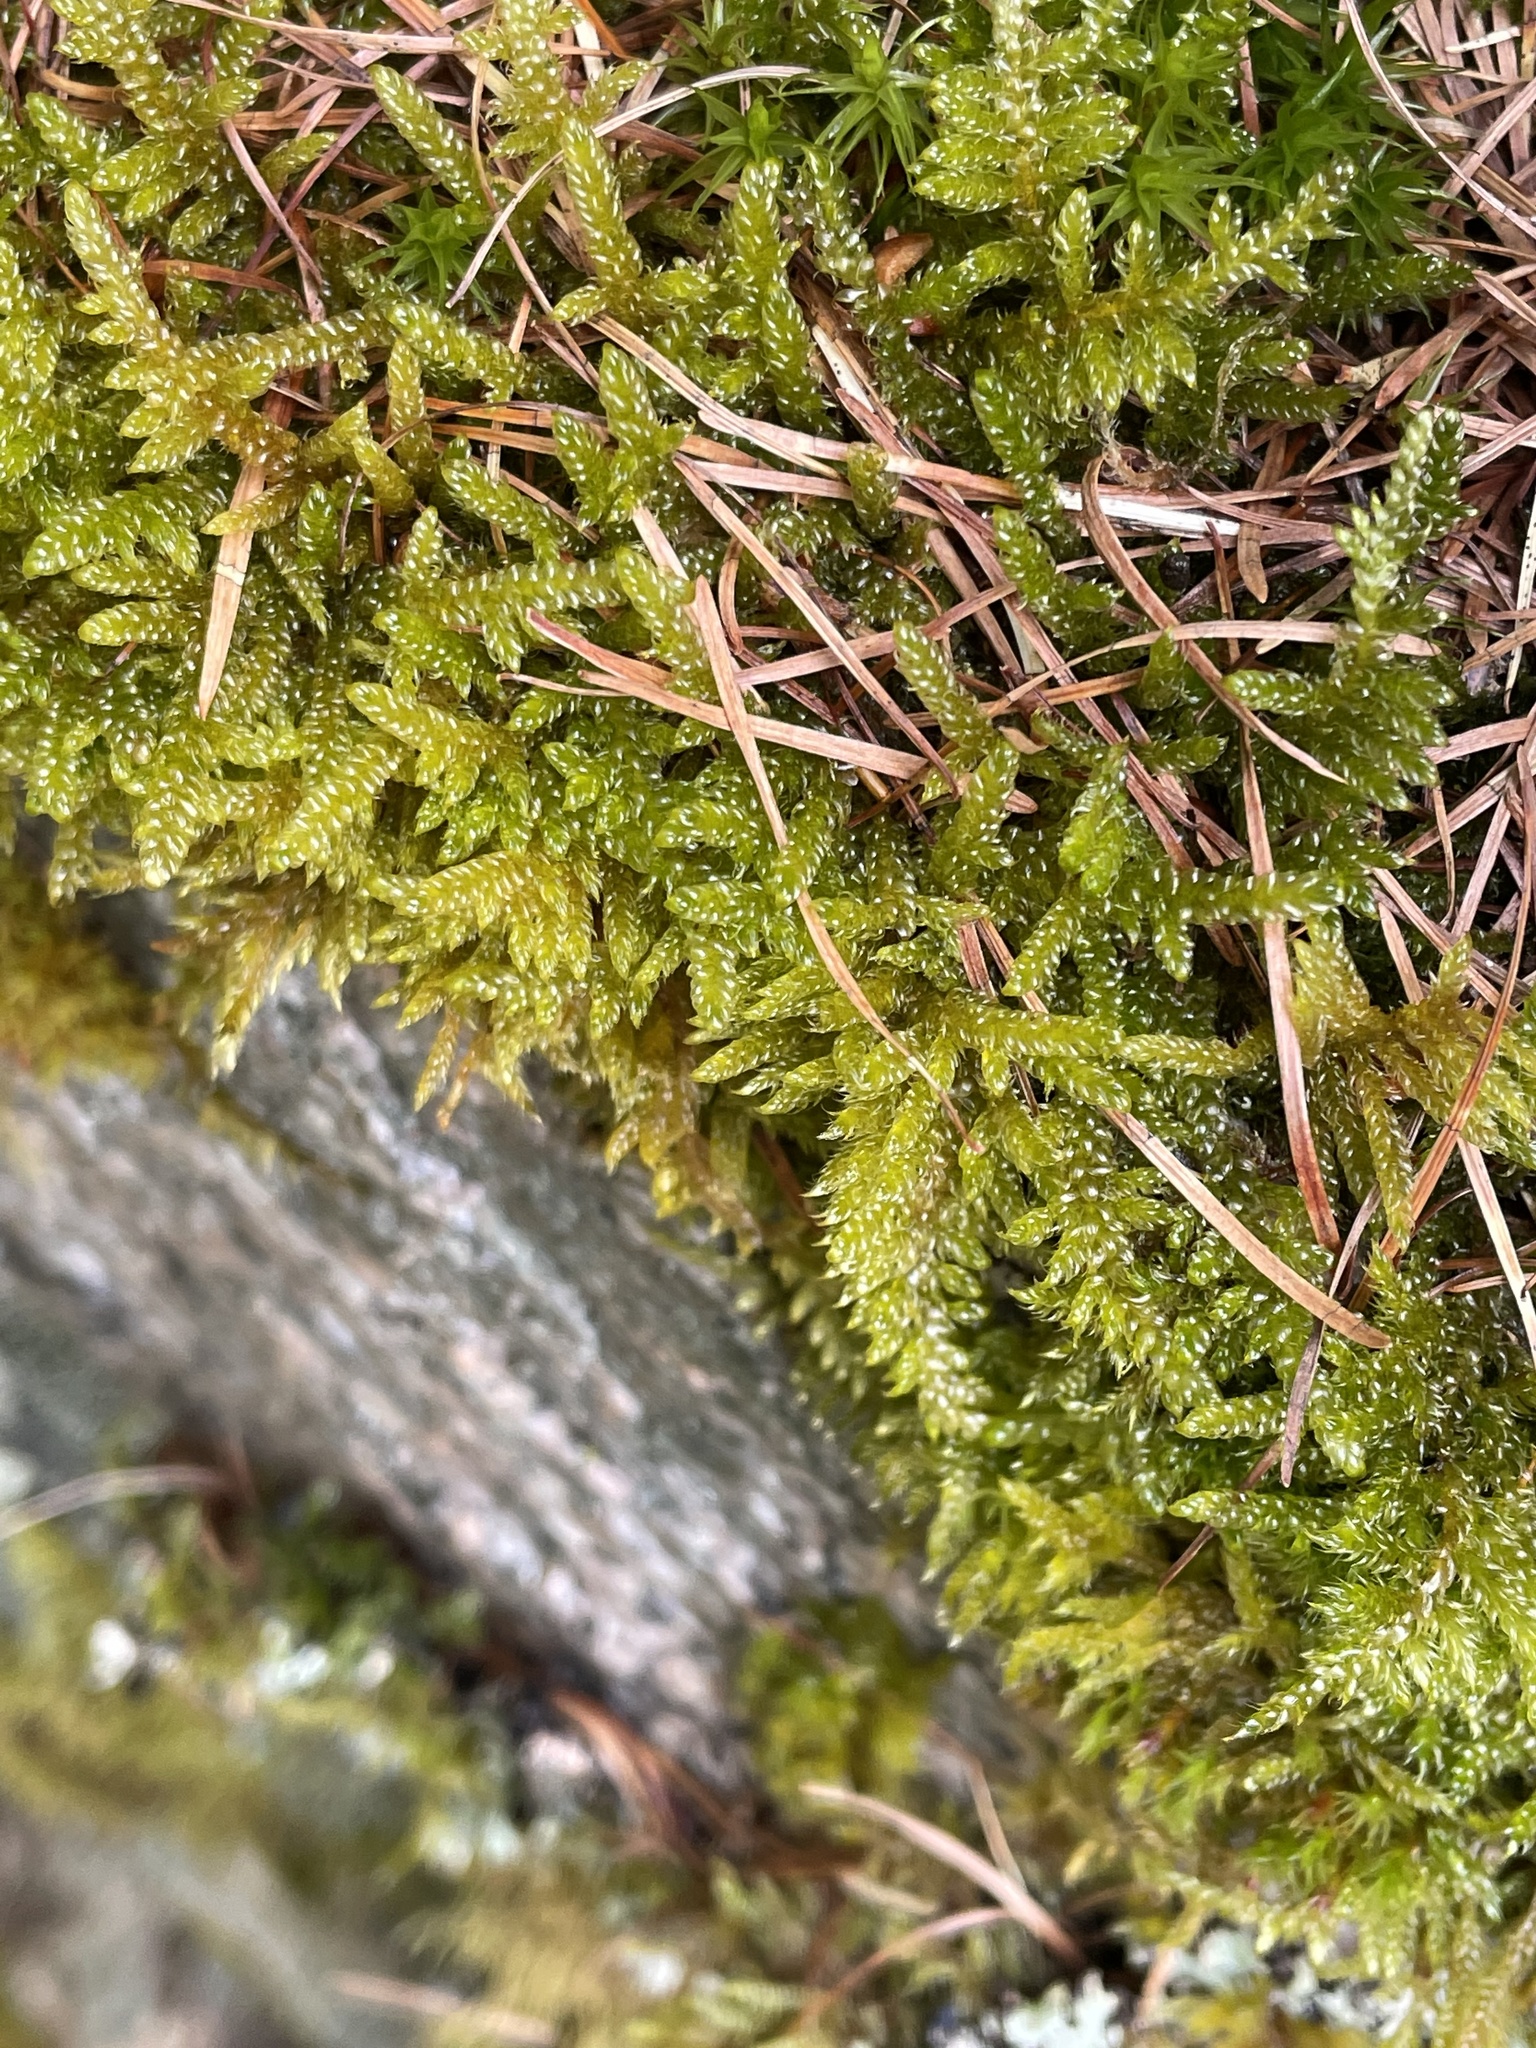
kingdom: Plantae
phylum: Bryophyta
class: Bryopsida
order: Hypnales
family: Hypnaceae
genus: Hypnum
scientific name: Hypnum cupressiforme
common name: Cypress-leaved plait-moss
